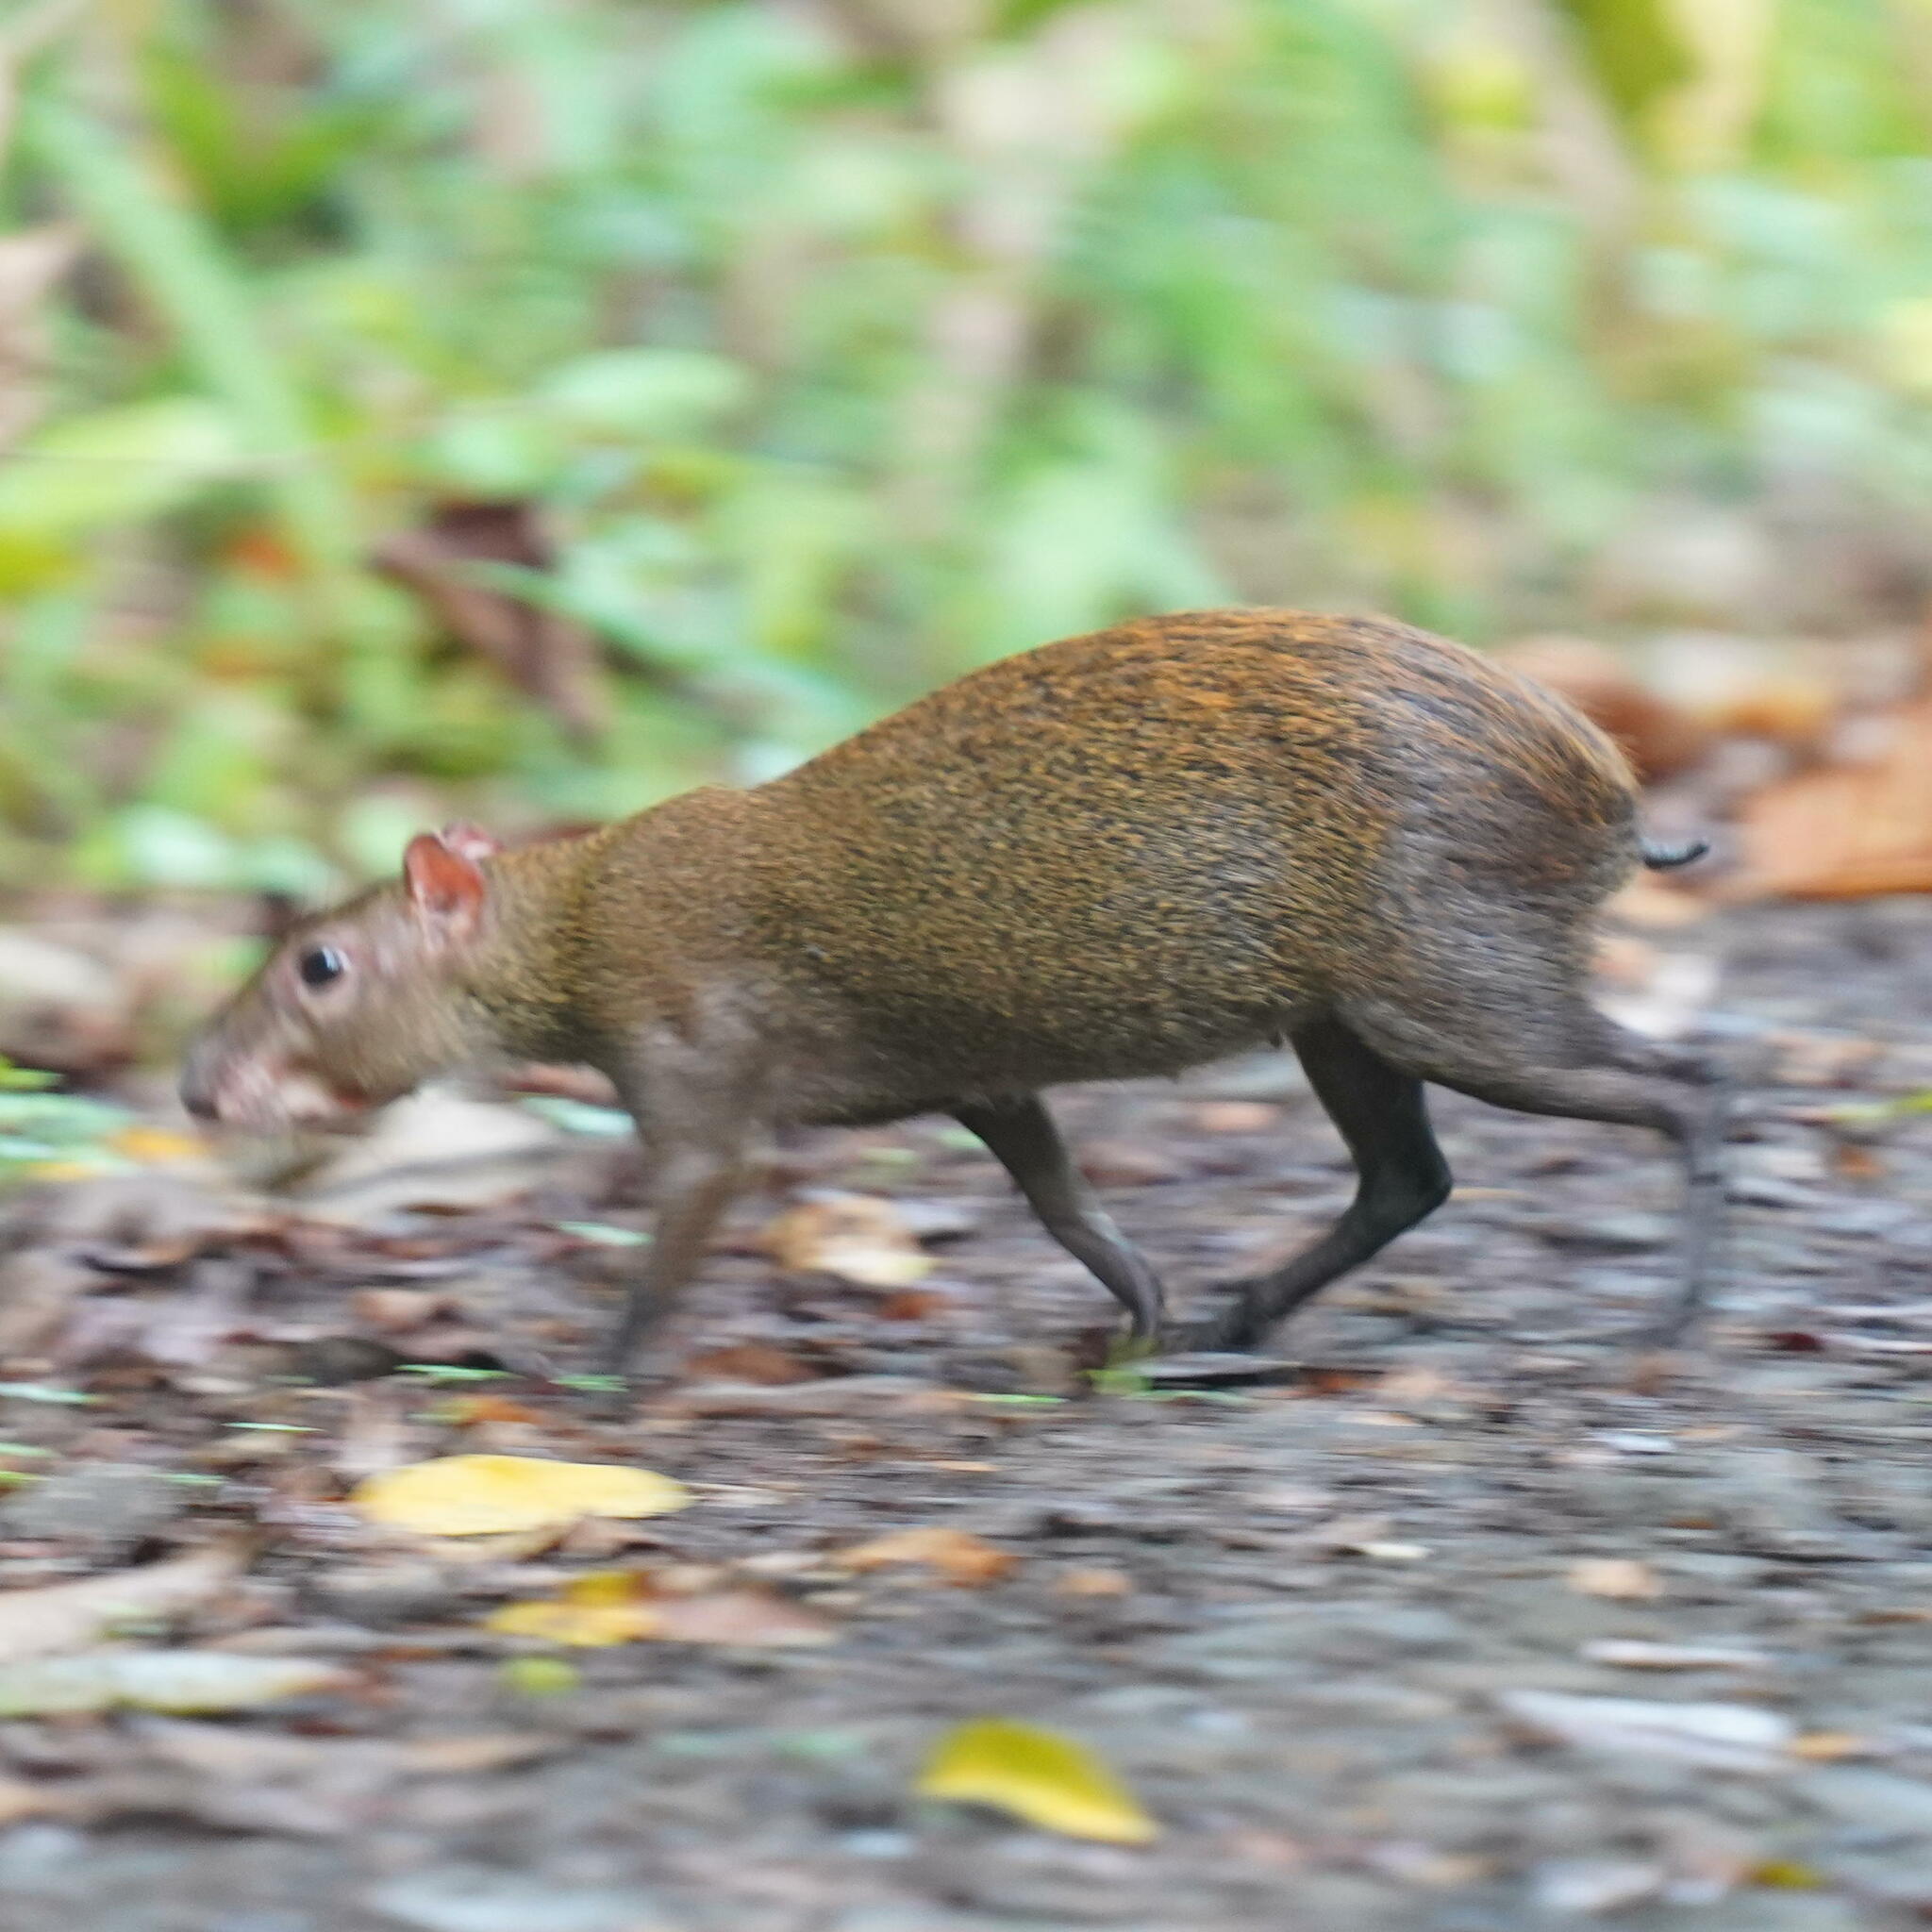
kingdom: Animalia
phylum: Chordata
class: Mammalia
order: Rodentia
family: Dasyproctidae
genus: Dasyprocta
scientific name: Dasyprocta punctata
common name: Central american agouti
